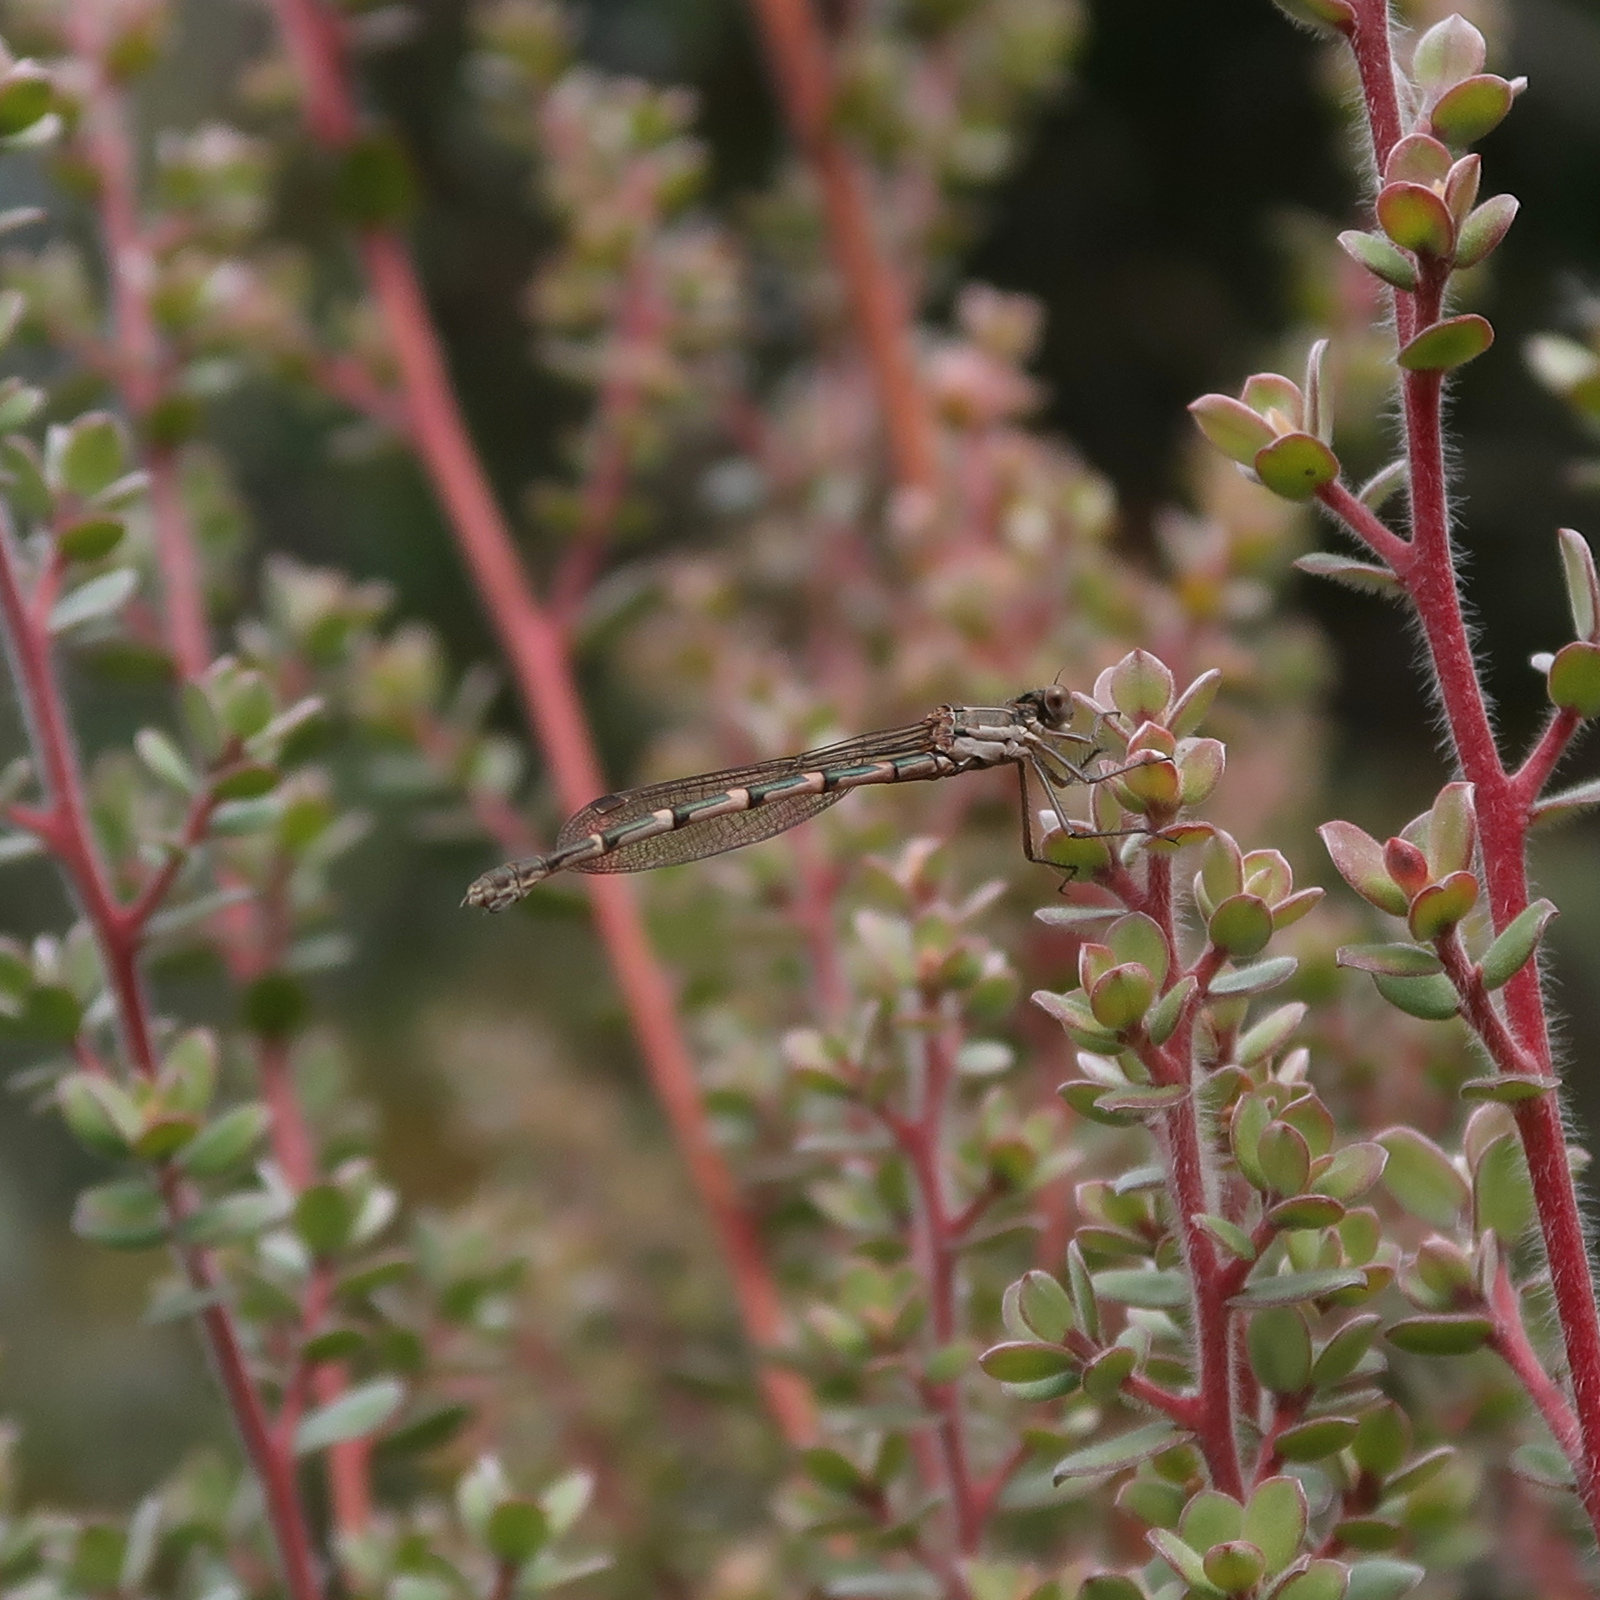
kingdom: Animalia
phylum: Arthropoda
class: Insecta
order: Odonata
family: Lestidae
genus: Austrolestes
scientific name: Austrolestes io
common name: Iota ringtail
